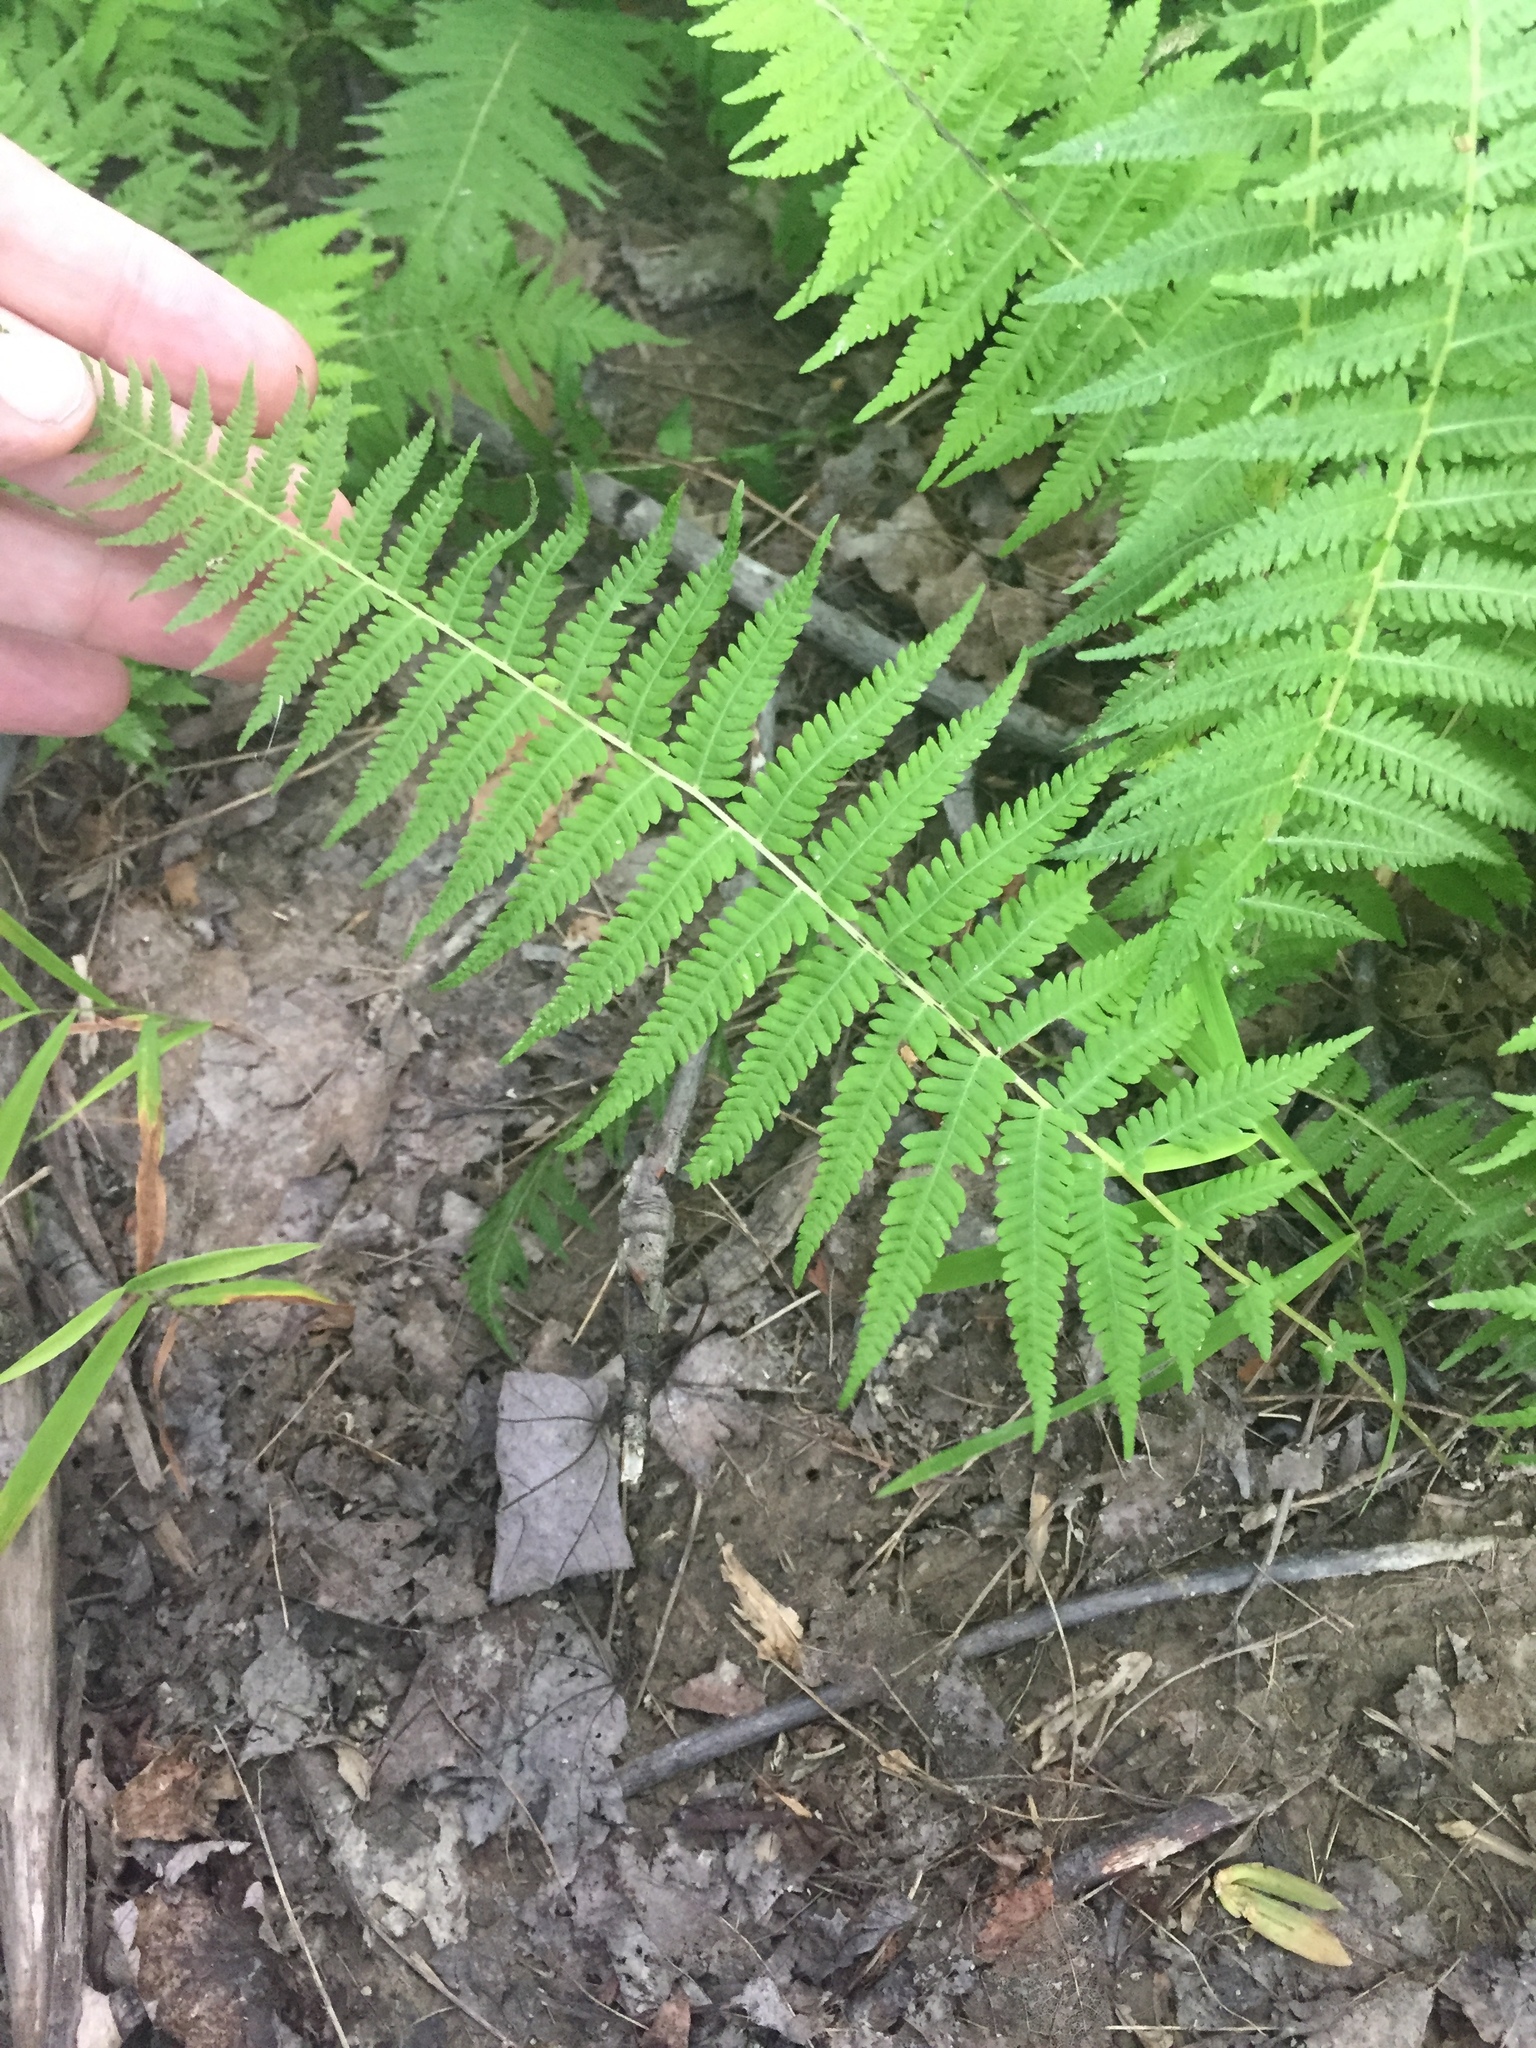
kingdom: Plantae
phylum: Tracheophyta
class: Polypodiopsida
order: Polypodiales
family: Thelypteridaceae
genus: Amauropelta
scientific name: Amauropelta noveboracensis
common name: New york fern
